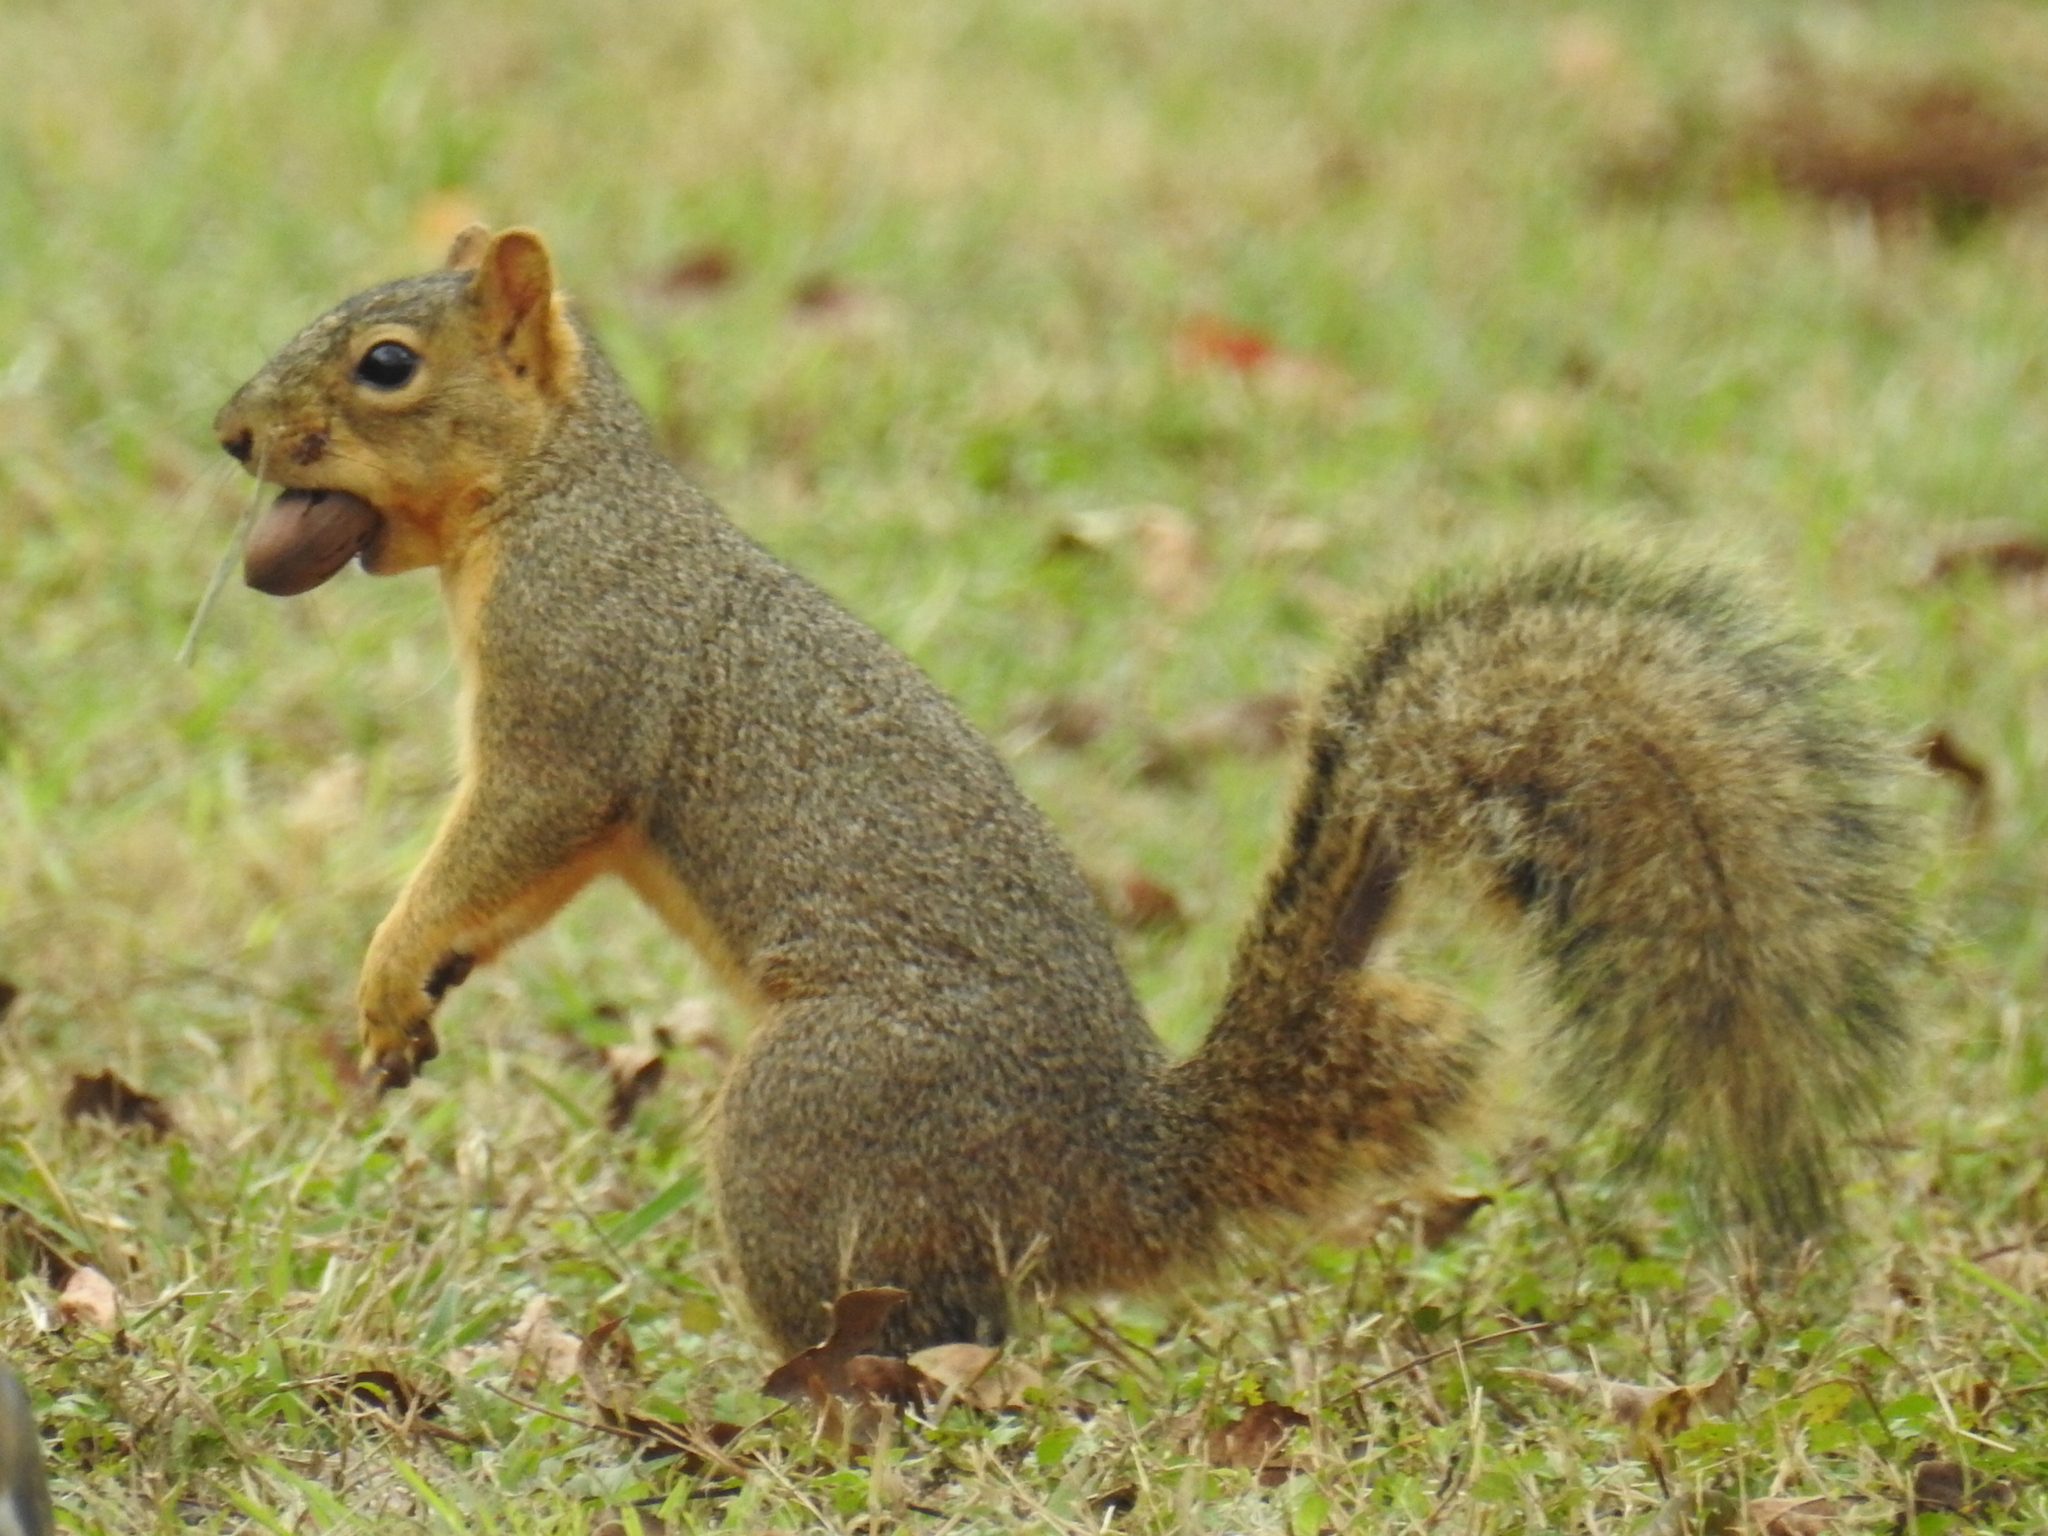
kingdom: Animalia
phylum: Chordata
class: Mammalia
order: Rodentia
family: Sciuridae
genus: Sciurus
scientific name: Sciurus niger
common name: Fox squirrel
